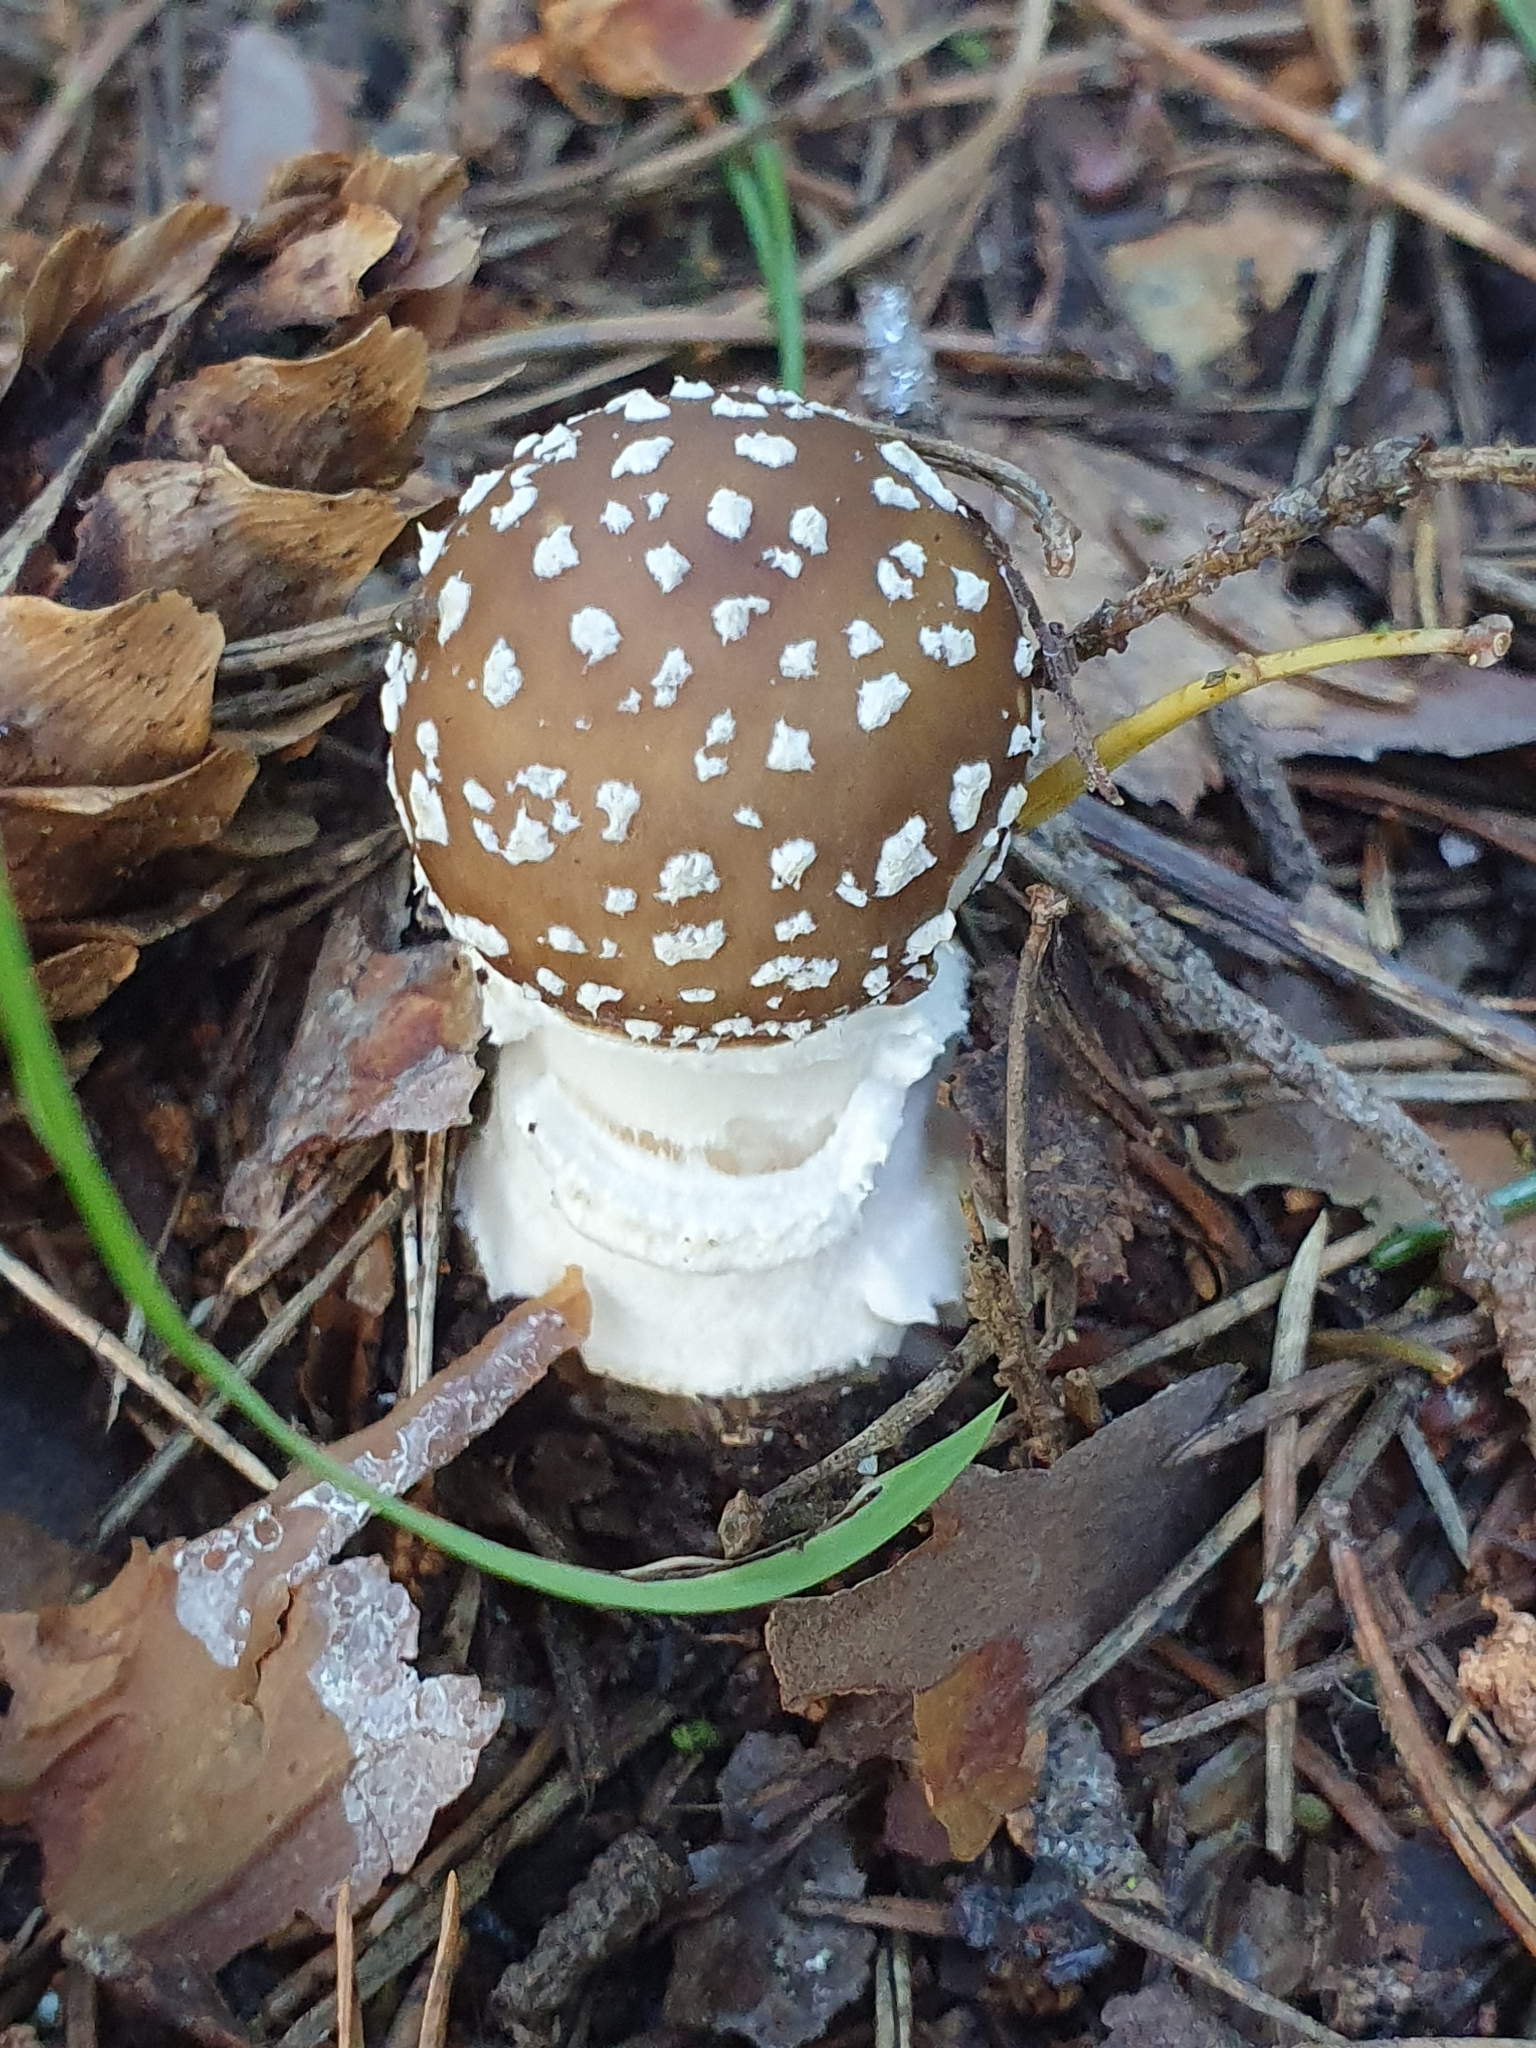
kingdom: Fungi
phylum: Basidiomycota
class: Agaricomycetes
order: Agaricales
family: Amanitaceae
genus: Amanita
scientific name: Amanita pantherina
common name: Panthercap
